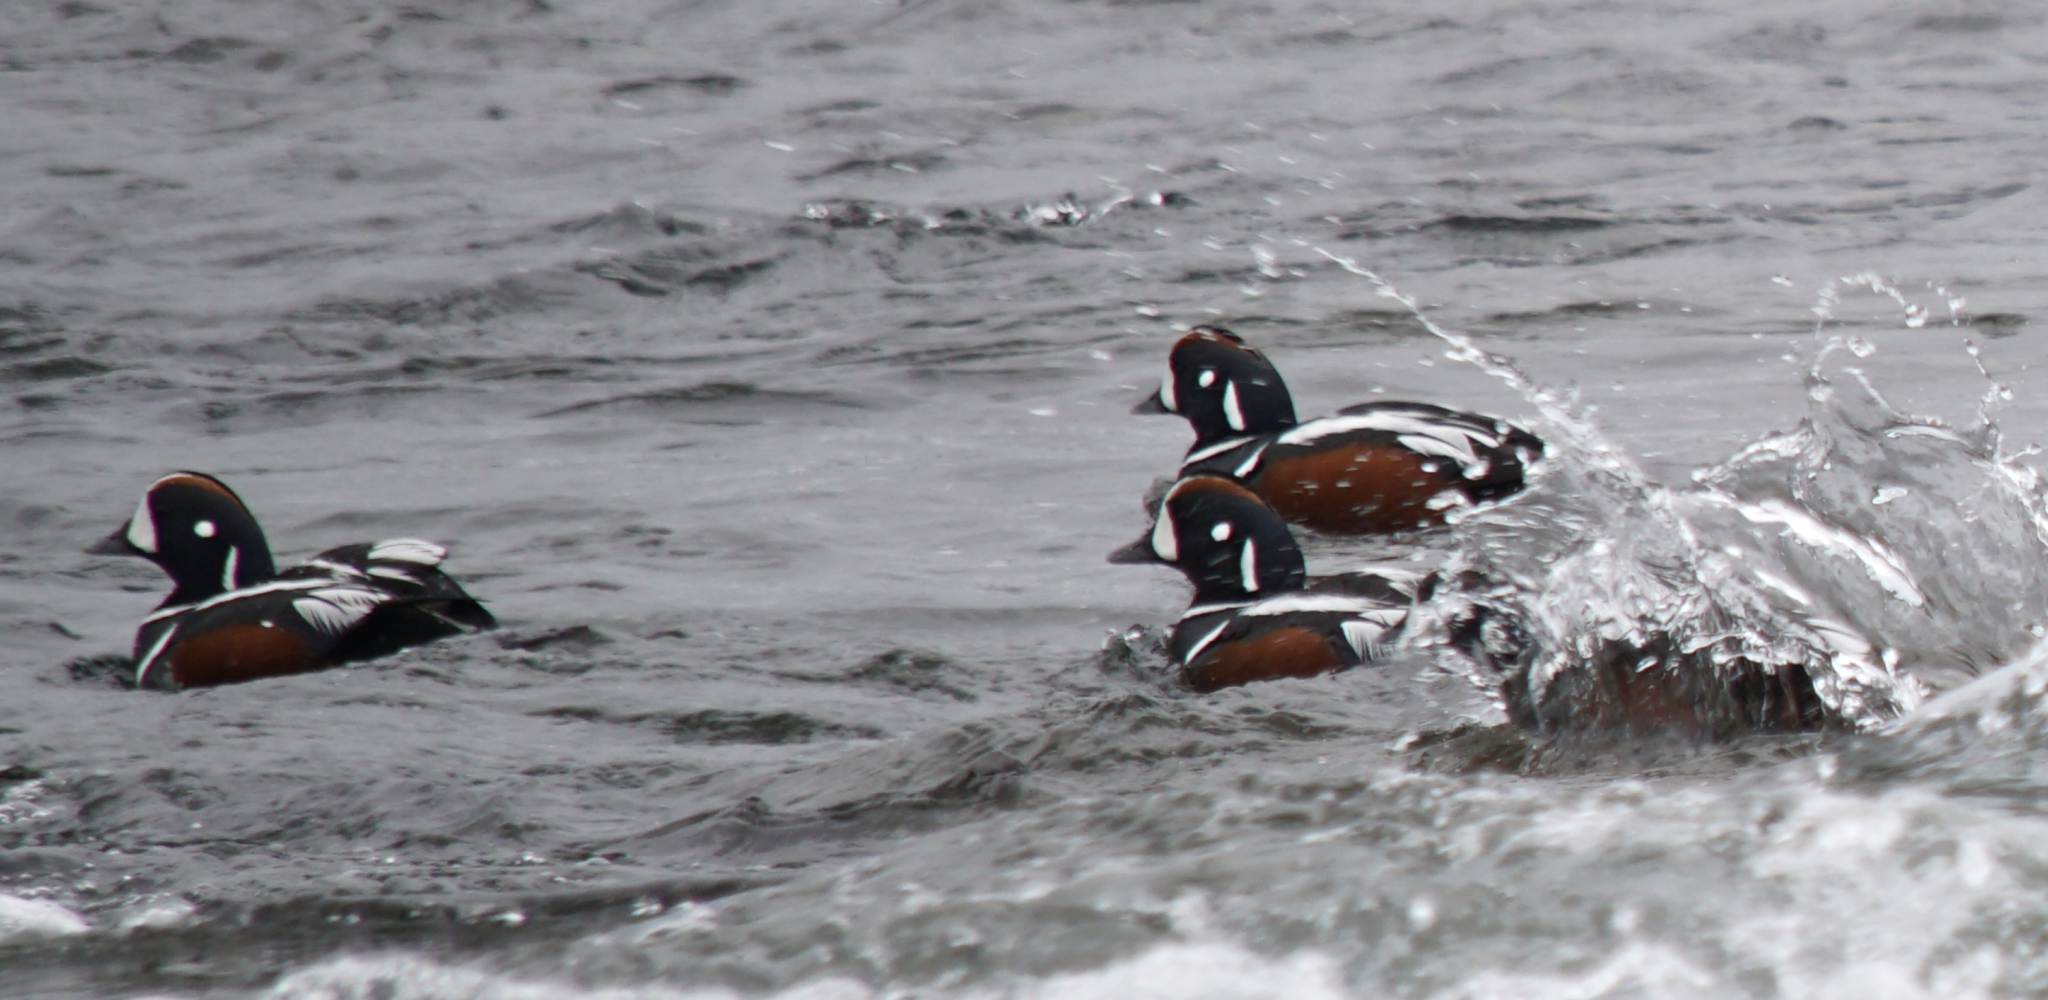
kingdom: Animalia
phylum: Chordata
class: Aves
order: Anseriformes
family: Anatidae
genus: Histrionicus
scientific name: Histrionicus histrionicus
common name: Harlequin duck
